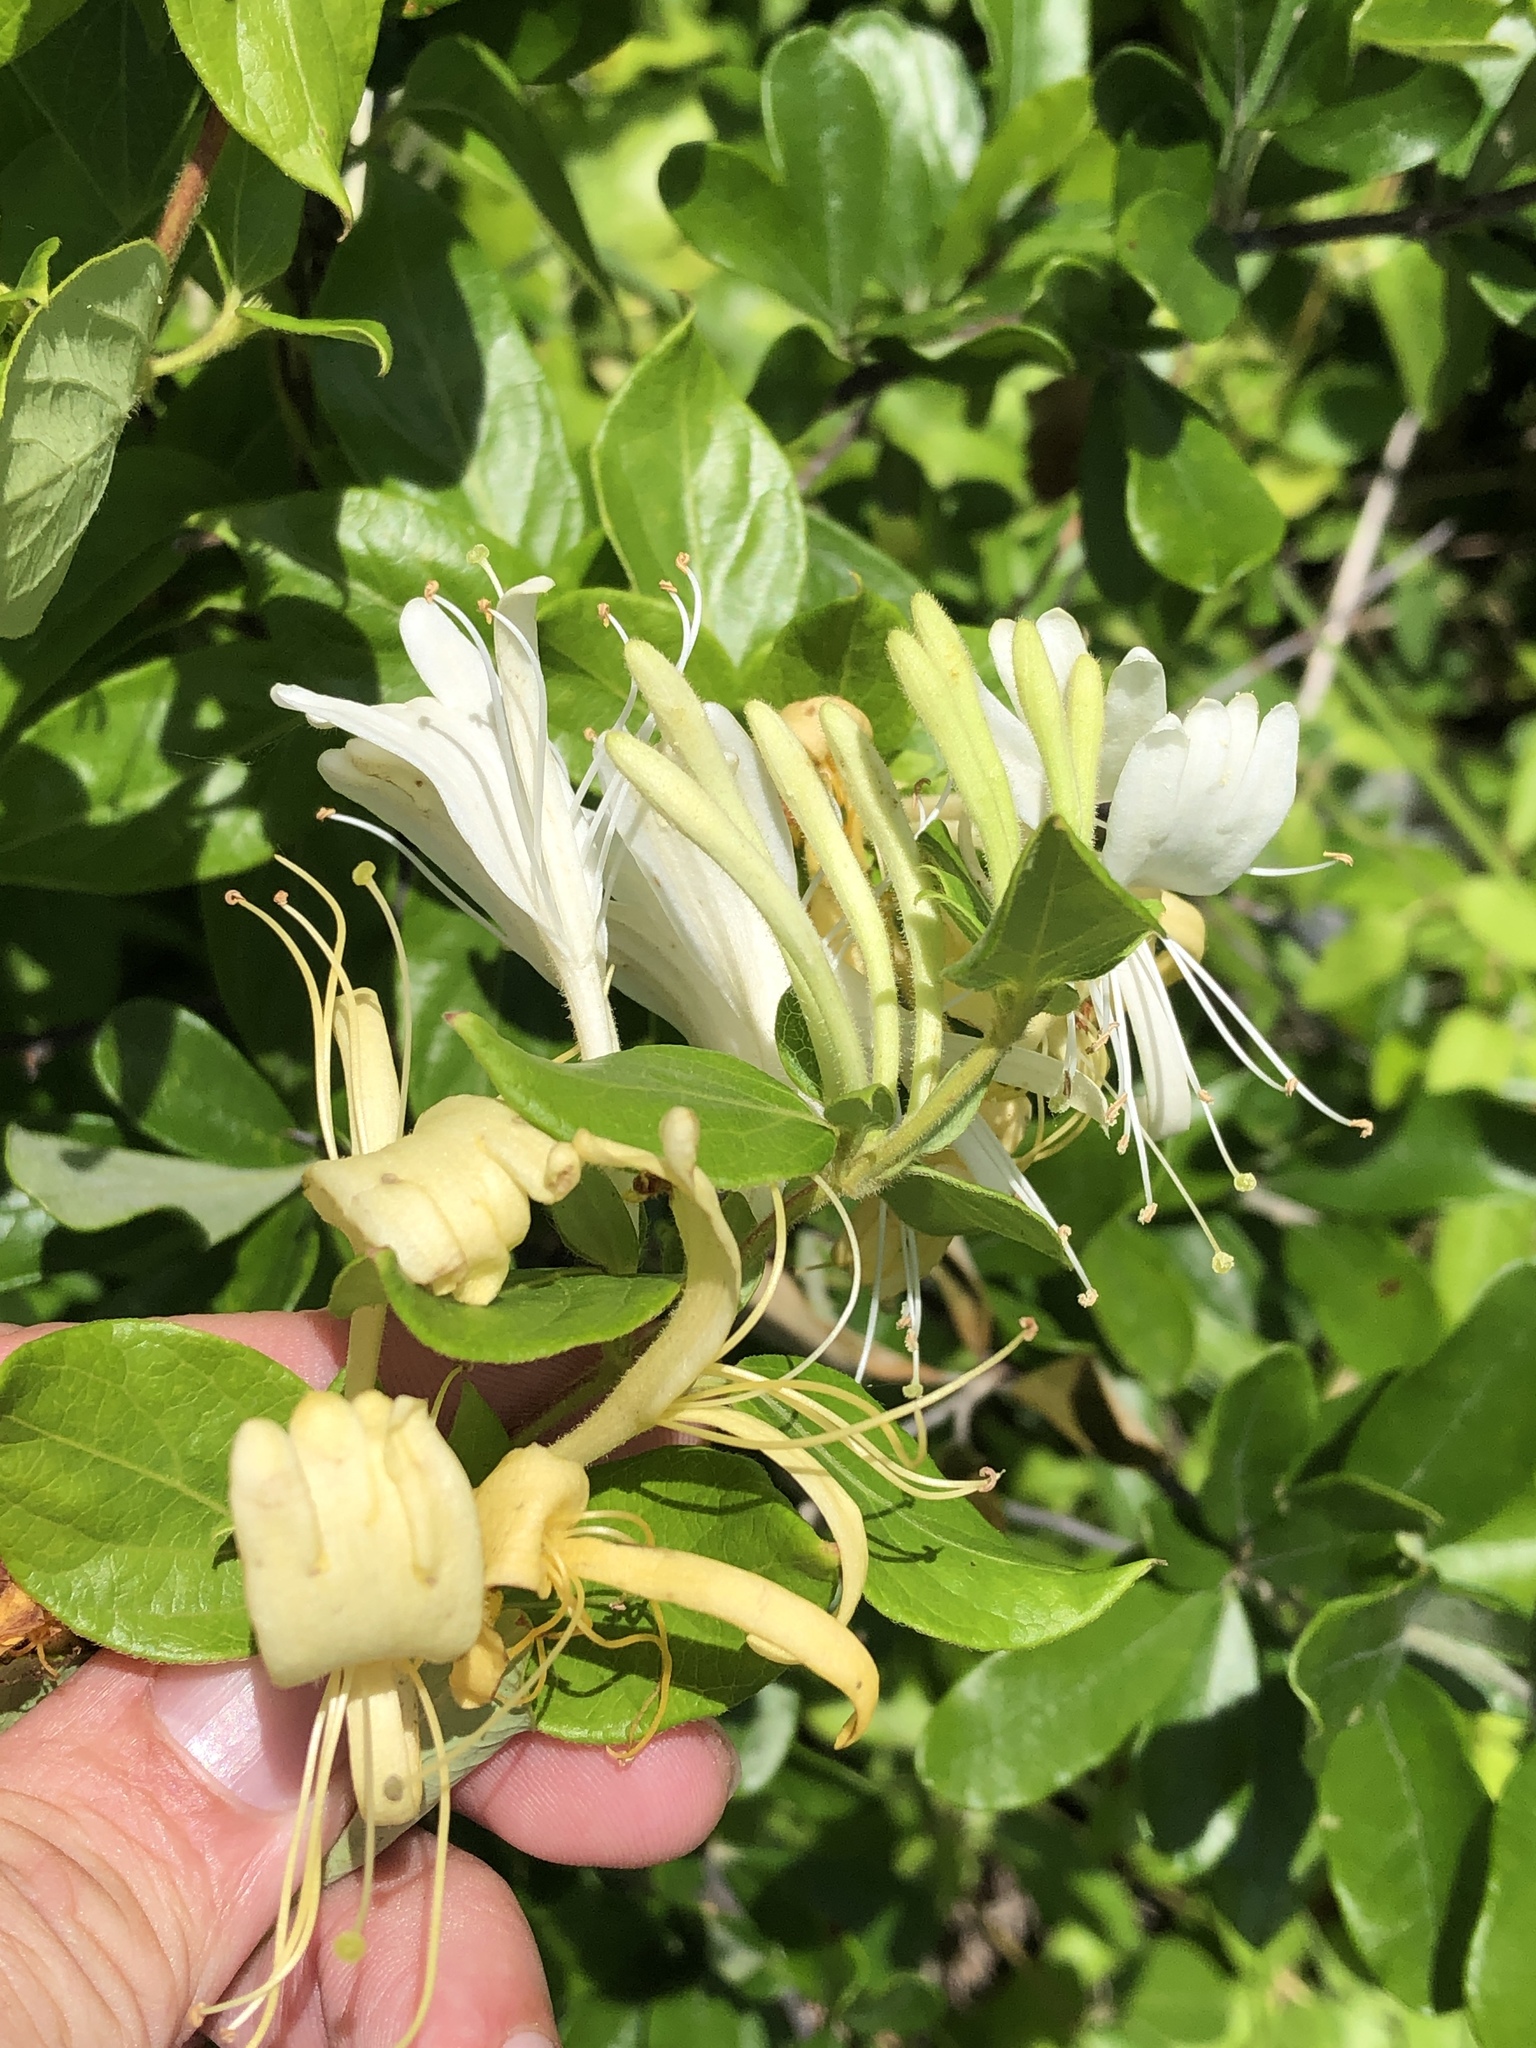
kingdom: Plantae
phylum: Tracheophyta
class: Magnoliopsida
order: Dipsacales
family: Caprifoliaceae
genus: Lonicera
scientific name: Lonicera japonica
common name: Japanese honeysuckle
